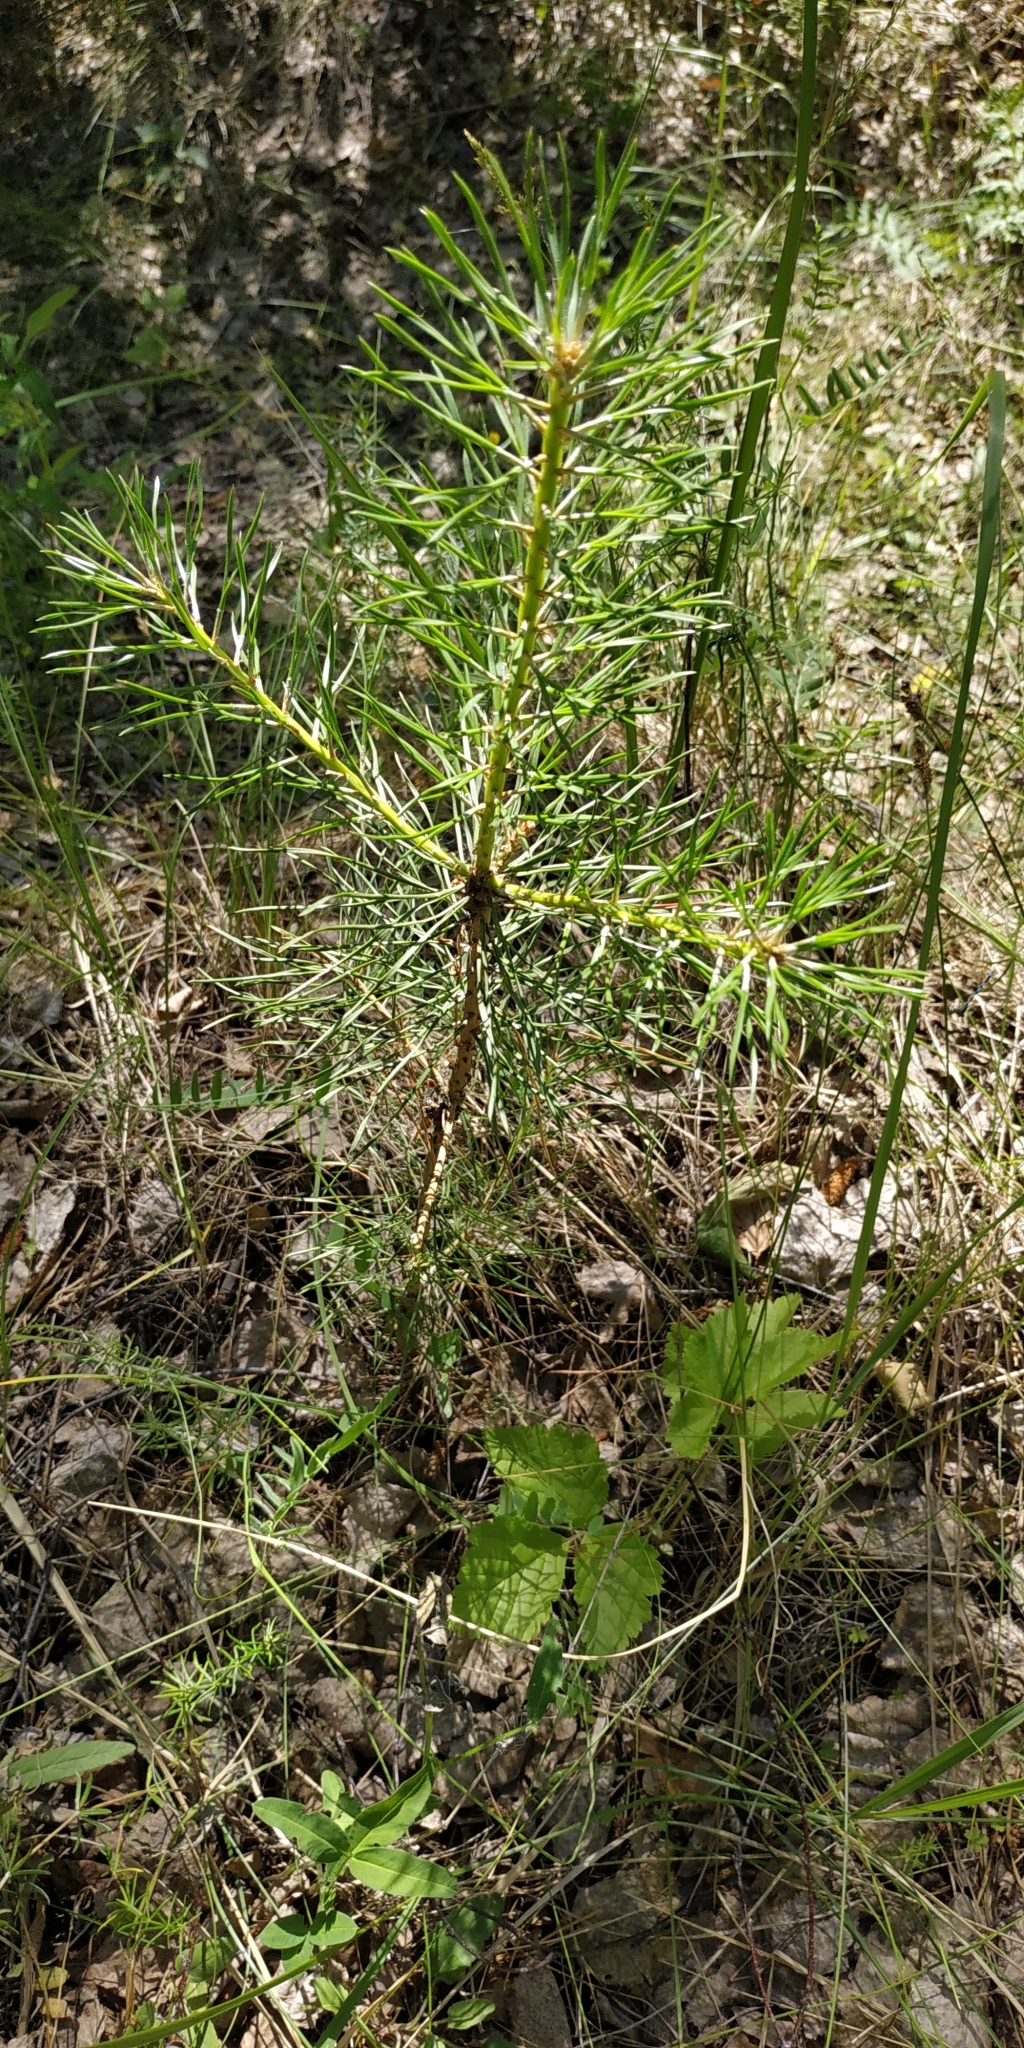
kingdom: Plantae
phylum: Tracheophyta
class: Pinopsida
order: Pinales
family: Pinaceae
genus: Pinus
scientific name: Pinus sylvestris
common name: Scots pine
